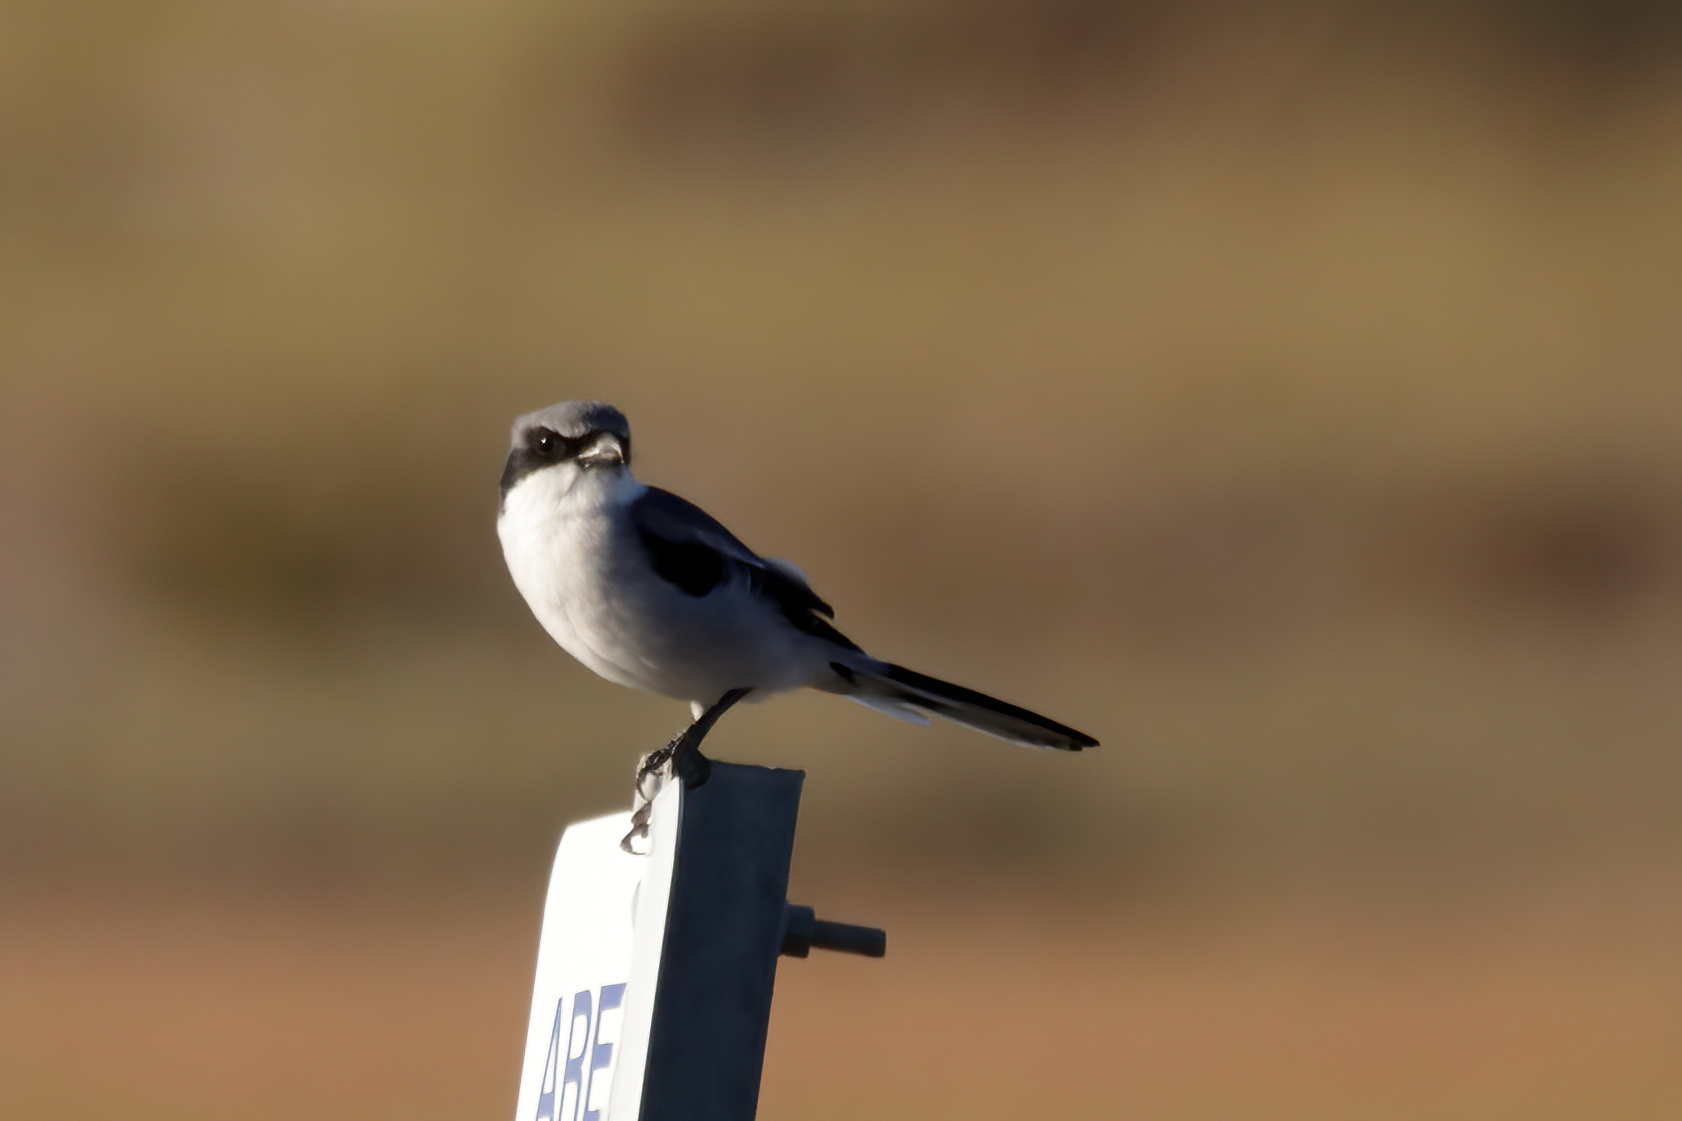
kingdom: Animalia
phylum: Chordata
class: Aves
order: Passeriformes
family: Laniidae
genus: Lanius
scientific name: Lanius ludovicianus
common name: Loggerhead shrike
